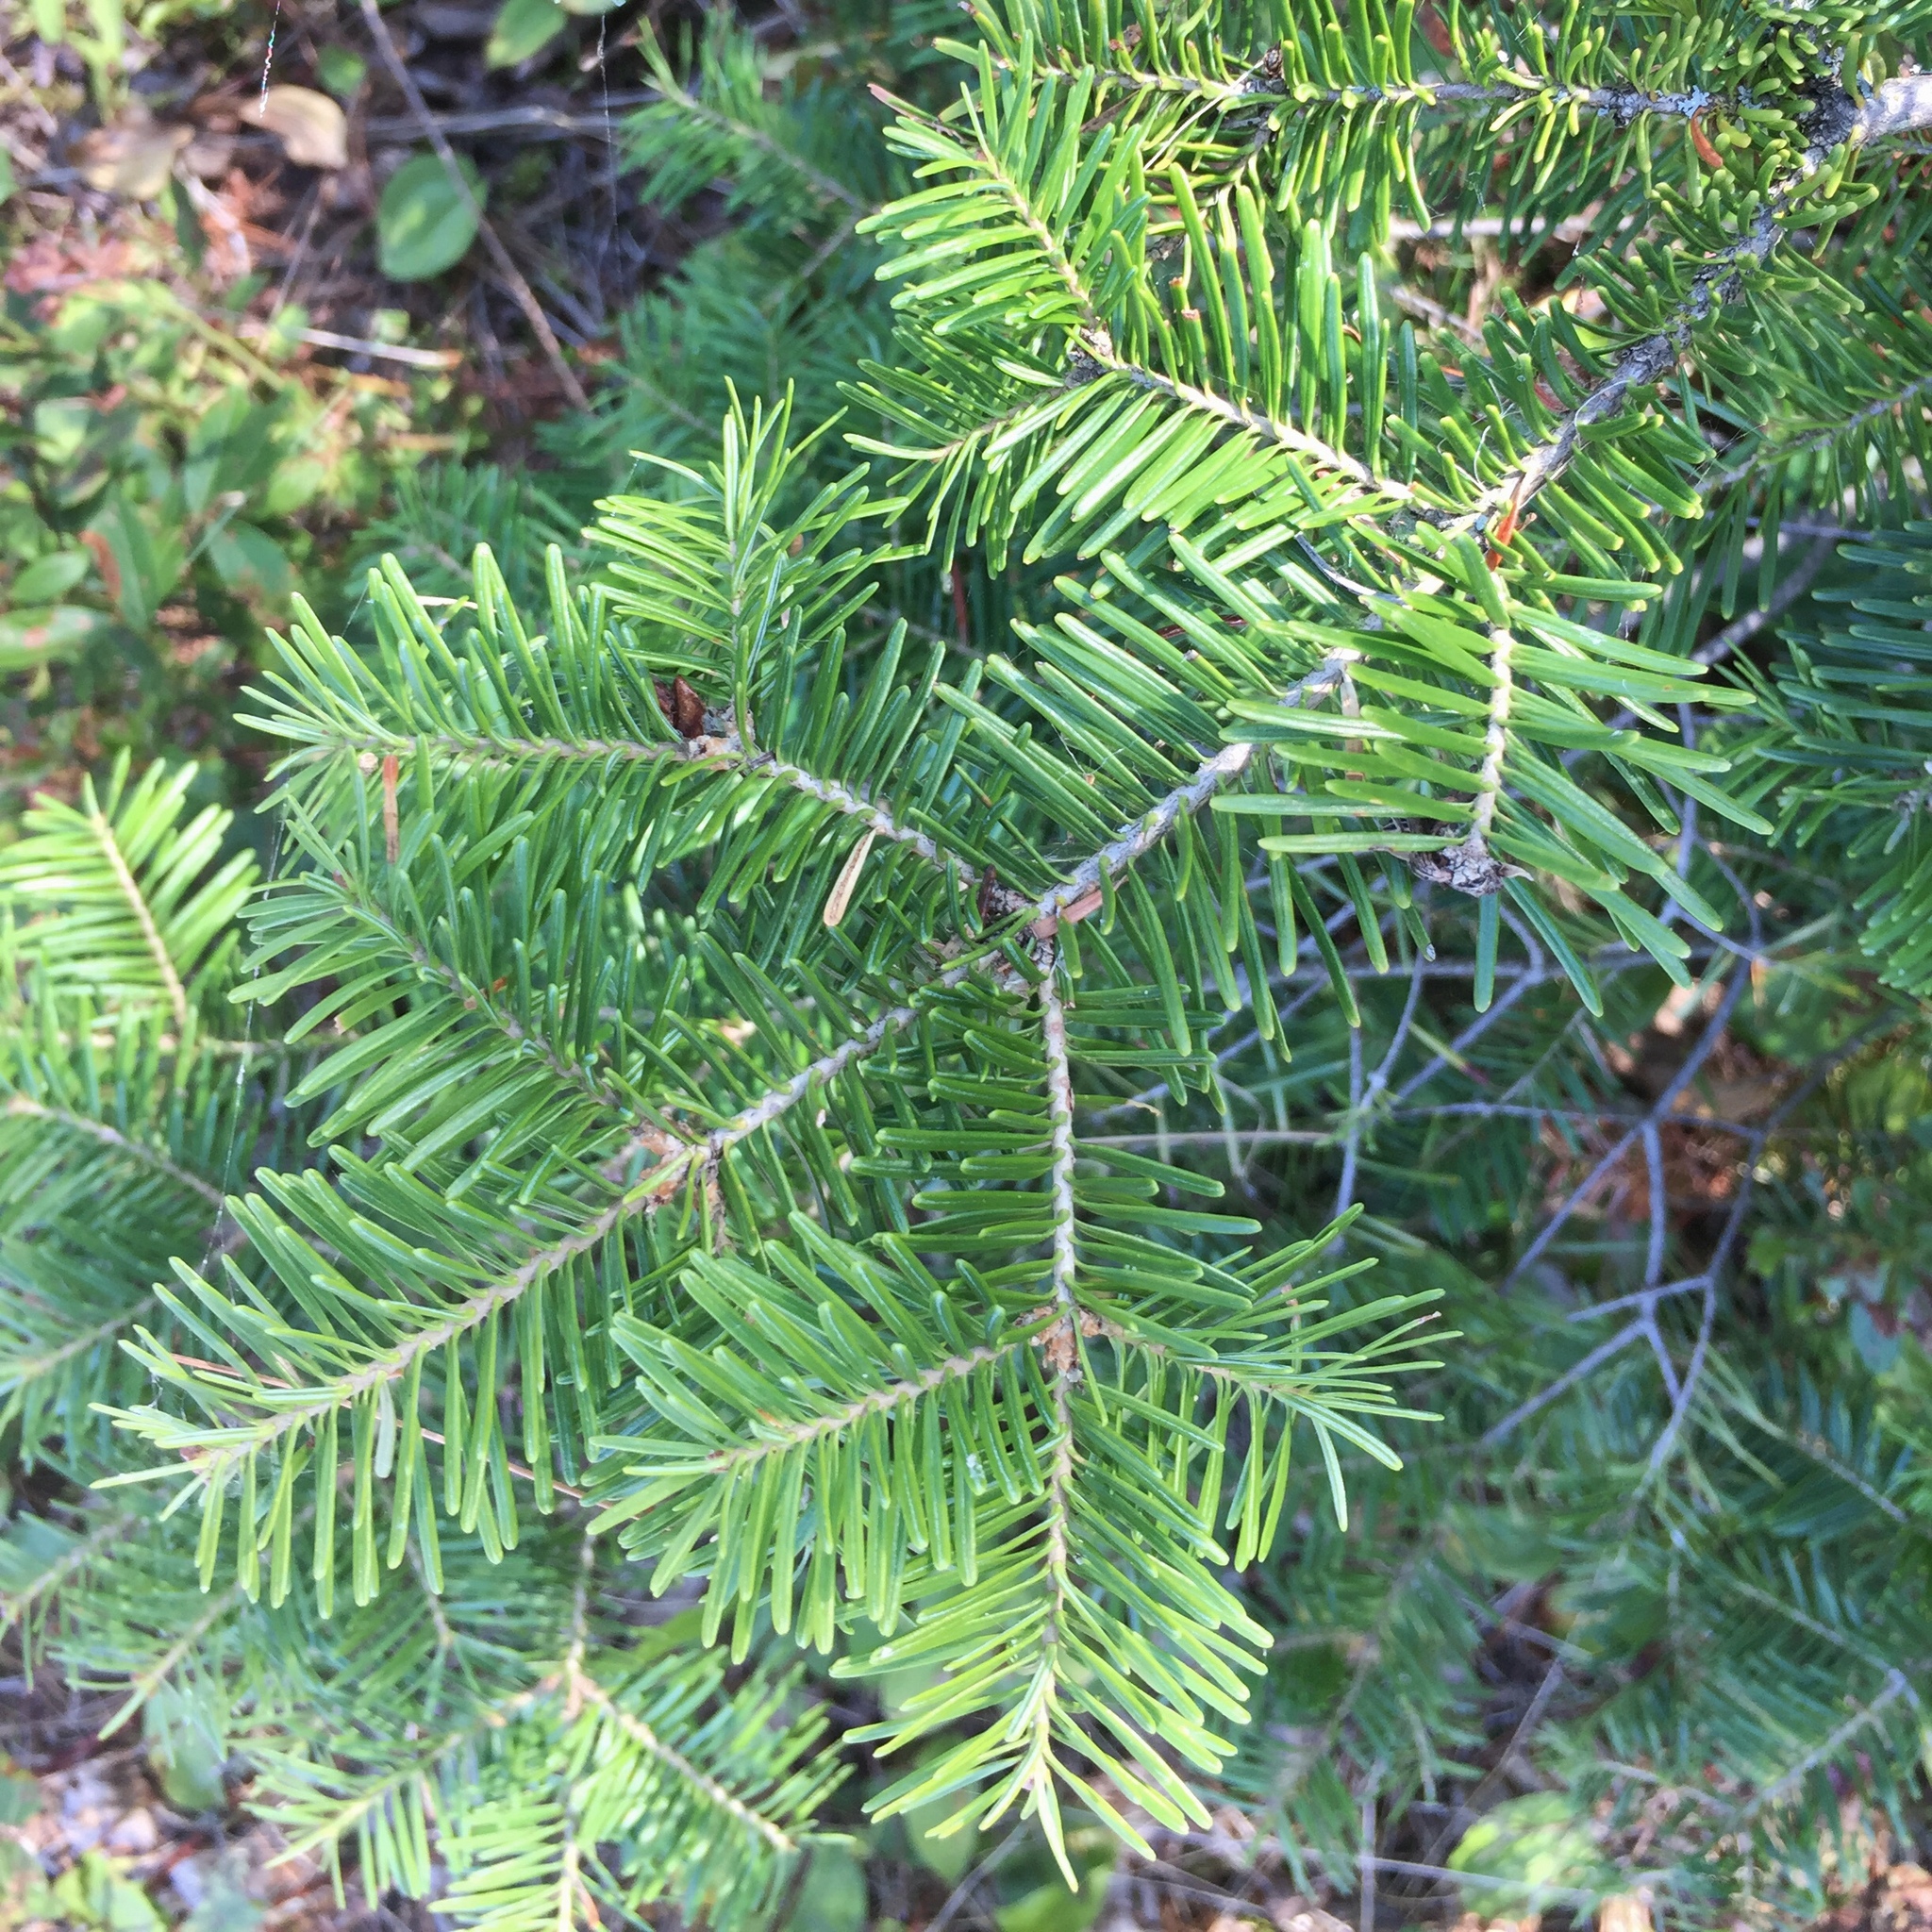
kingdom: Plantae
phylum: Tracheophyta
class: Pinopsida
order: Pinales
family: Pinaceae
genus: Abies
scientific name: Abies balsamea
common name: Balsam fir
